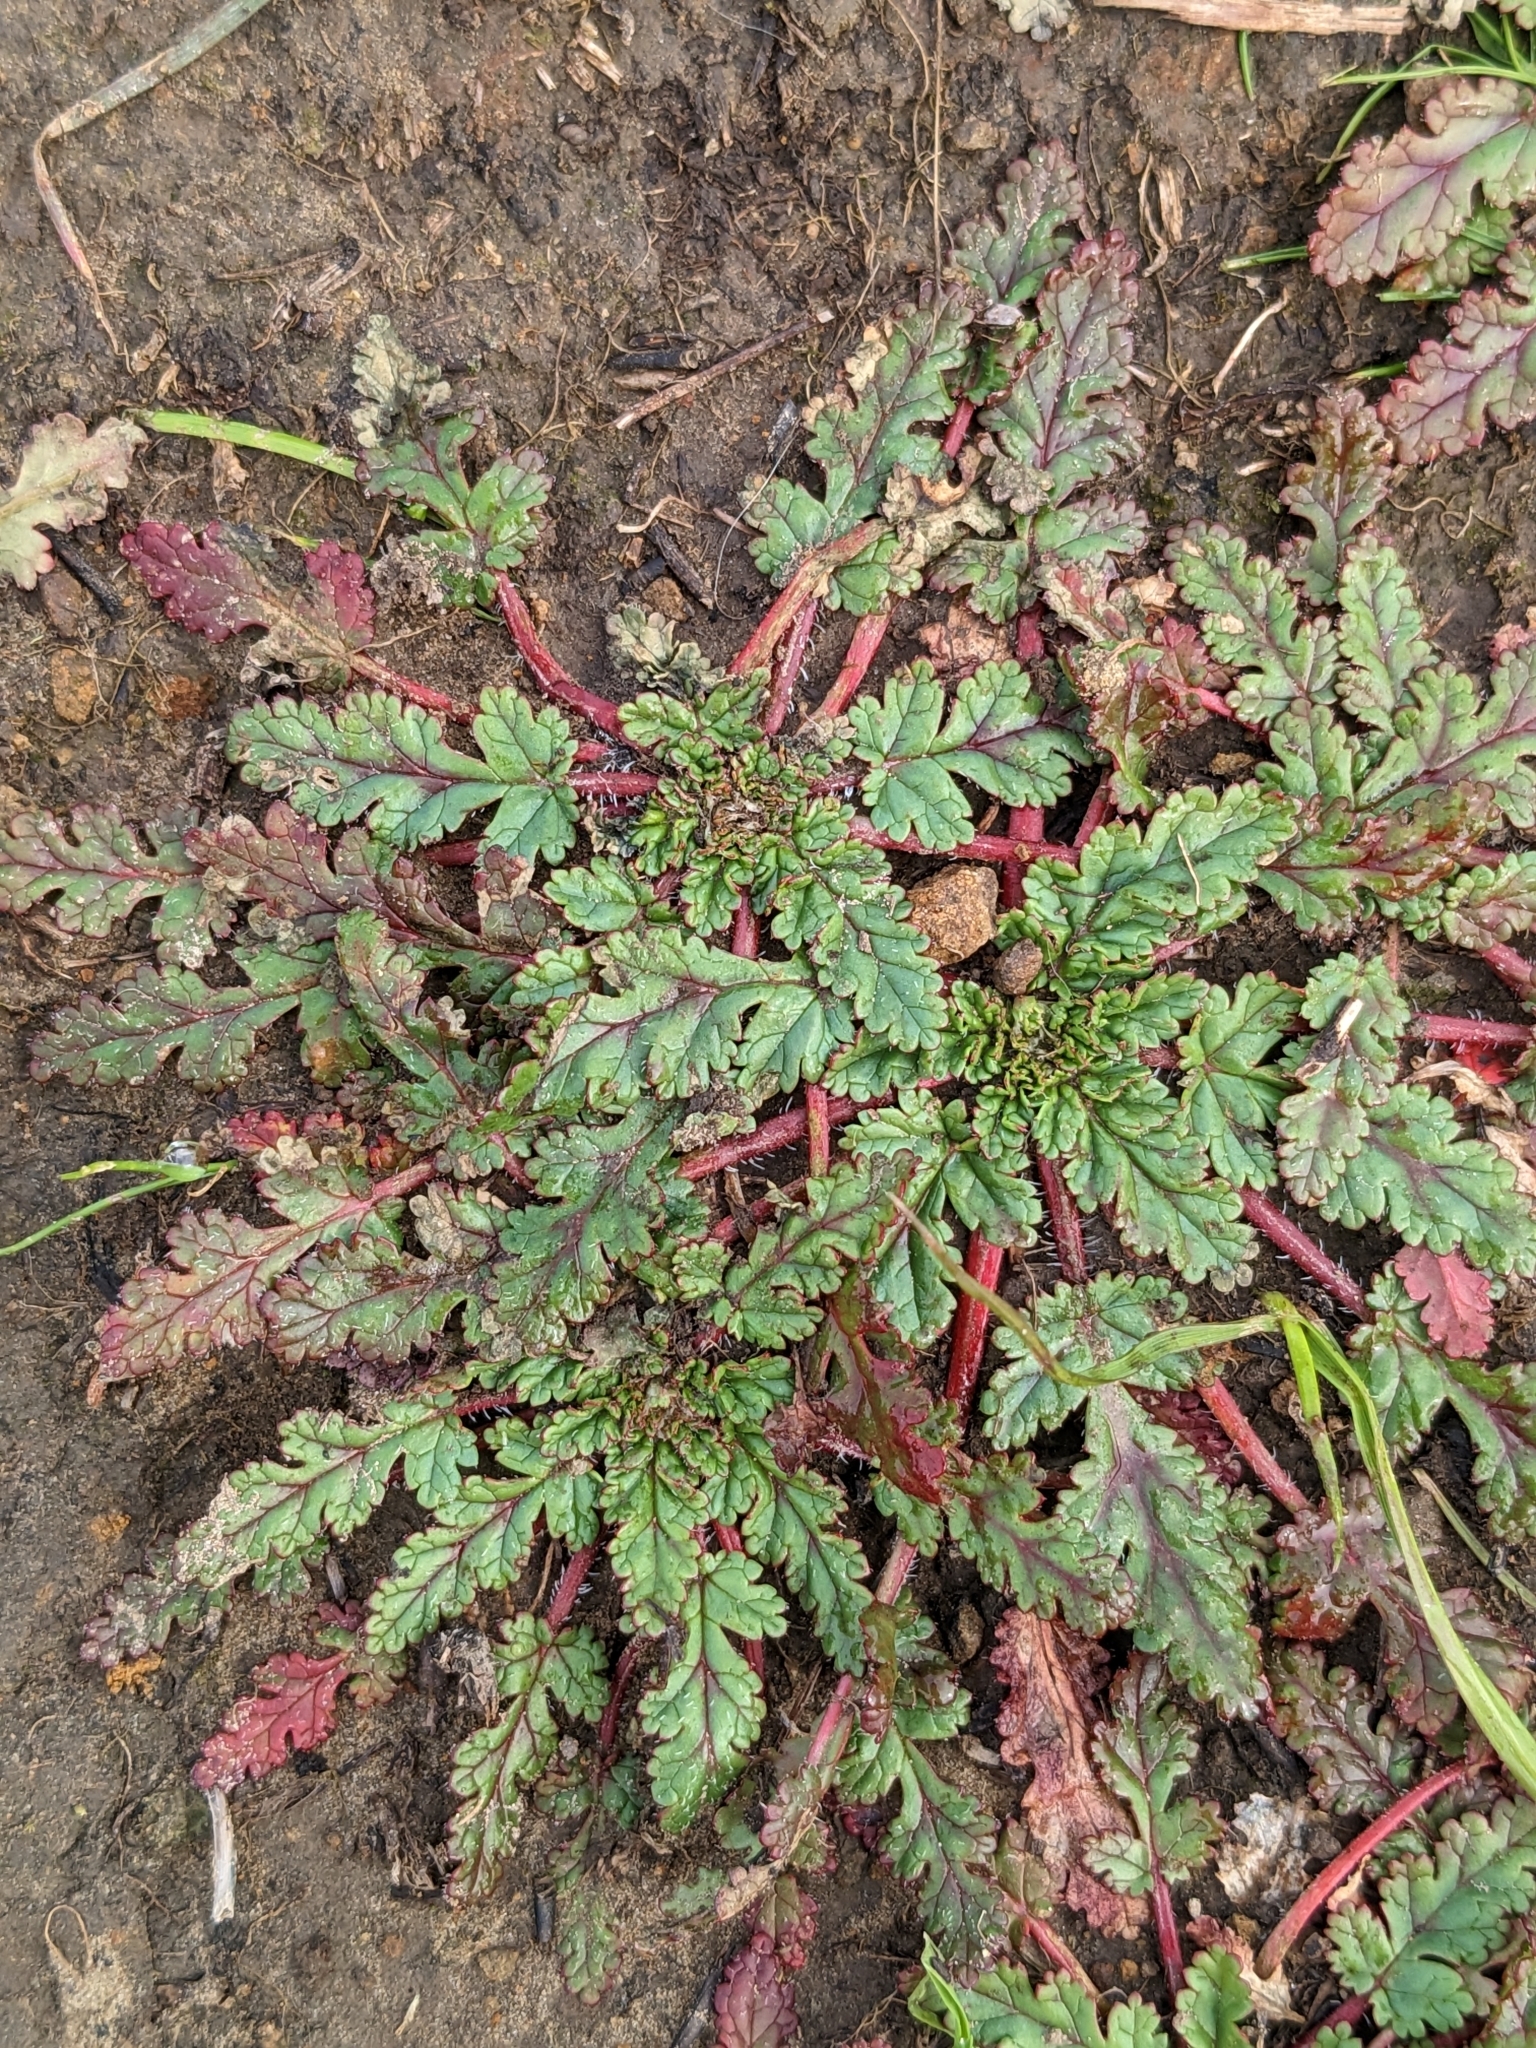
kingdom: Plantae
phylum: Tracheophyta
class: Magnoliopsida
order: Geraniales
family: Geraniaceae
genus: Erodium
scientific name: Erodium
